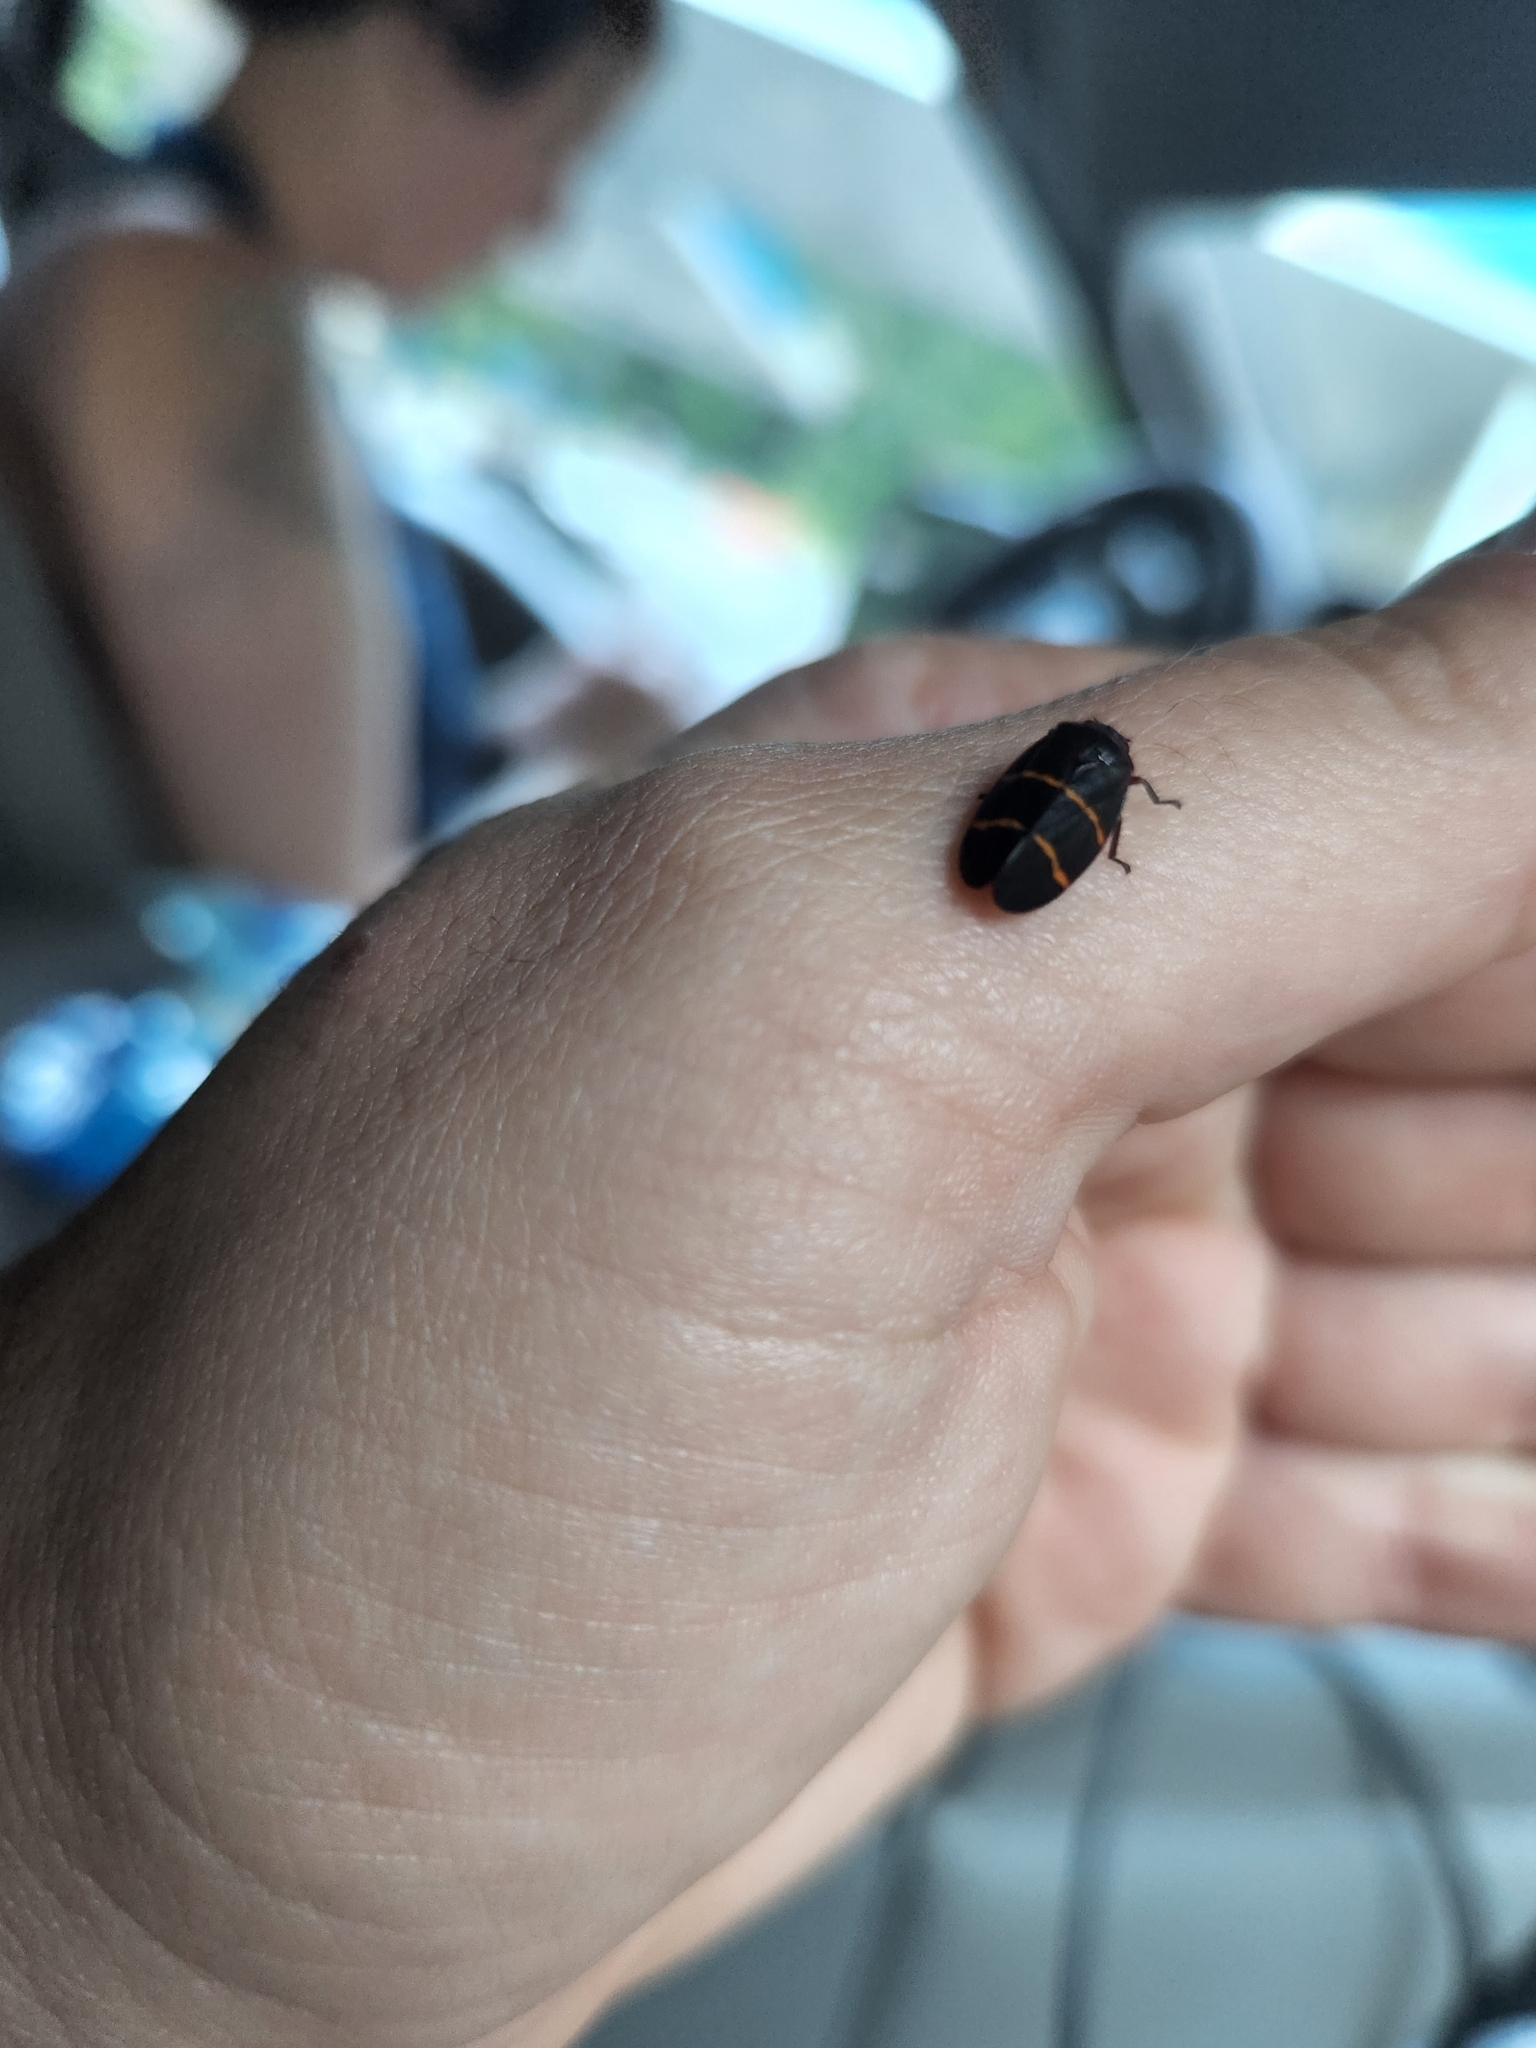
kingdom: Animalia
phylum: Arthropoda
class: Insecta
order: Hemiptera
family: Cercopidae
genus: Prosapia
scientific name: Prosapia bicincta
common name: Twolined spittlebug
